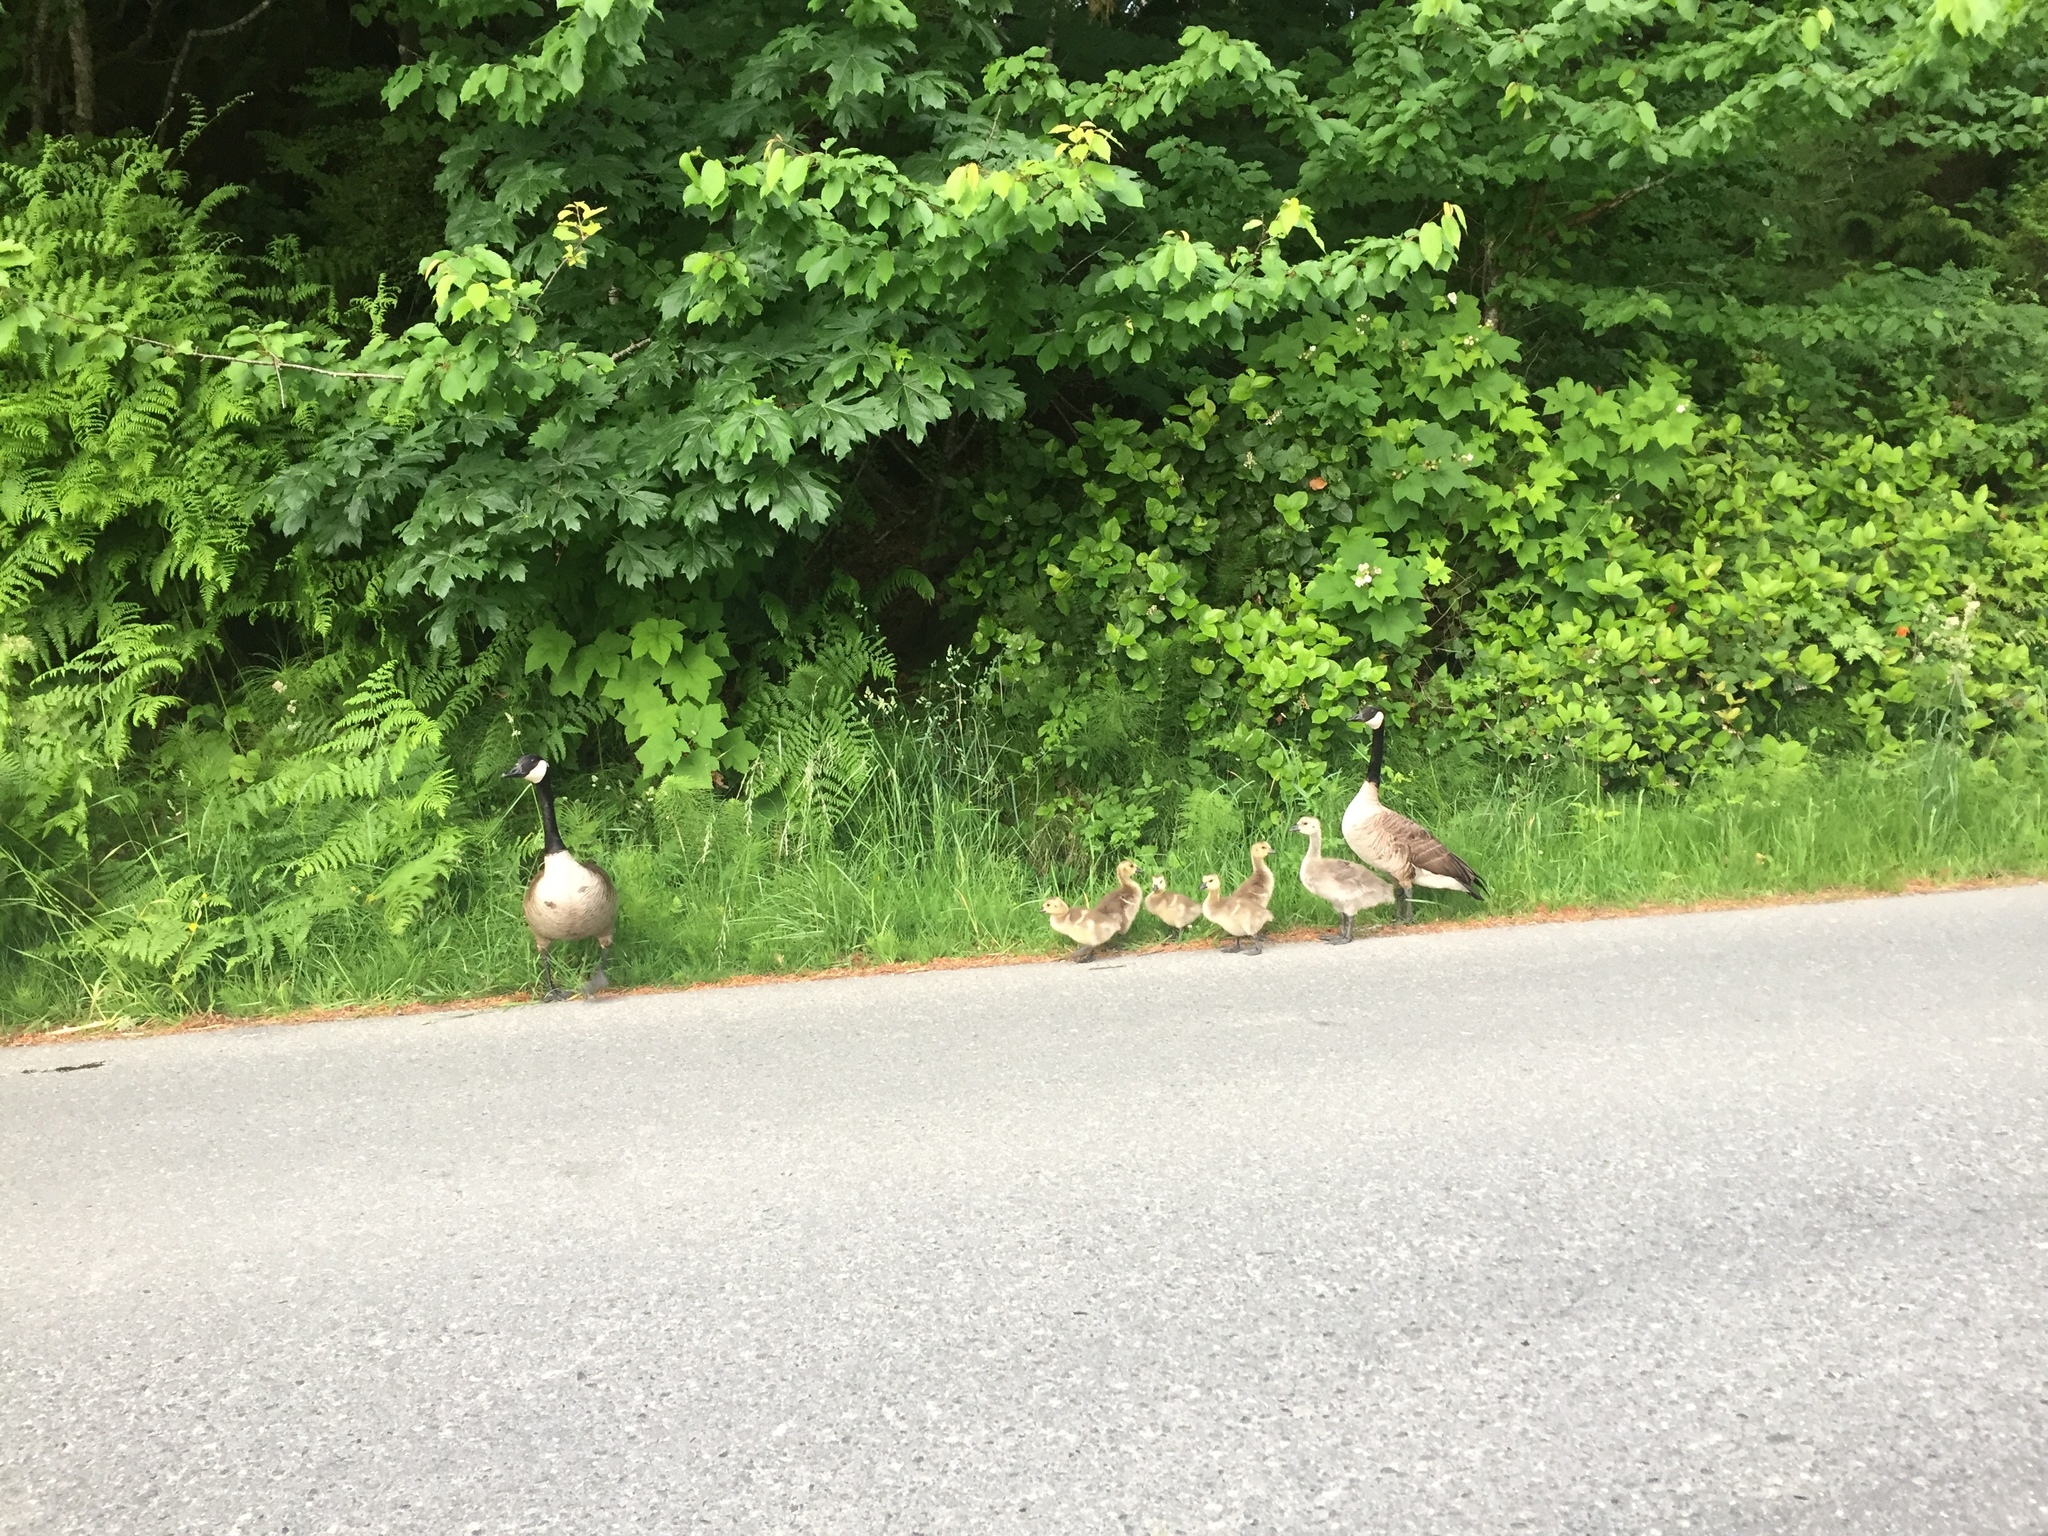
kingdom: Animalia
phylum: Chordata
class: Aves
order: Anseriformes
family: Anatidae
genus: Branta
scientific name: Branta canadensis
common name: Canada goose
